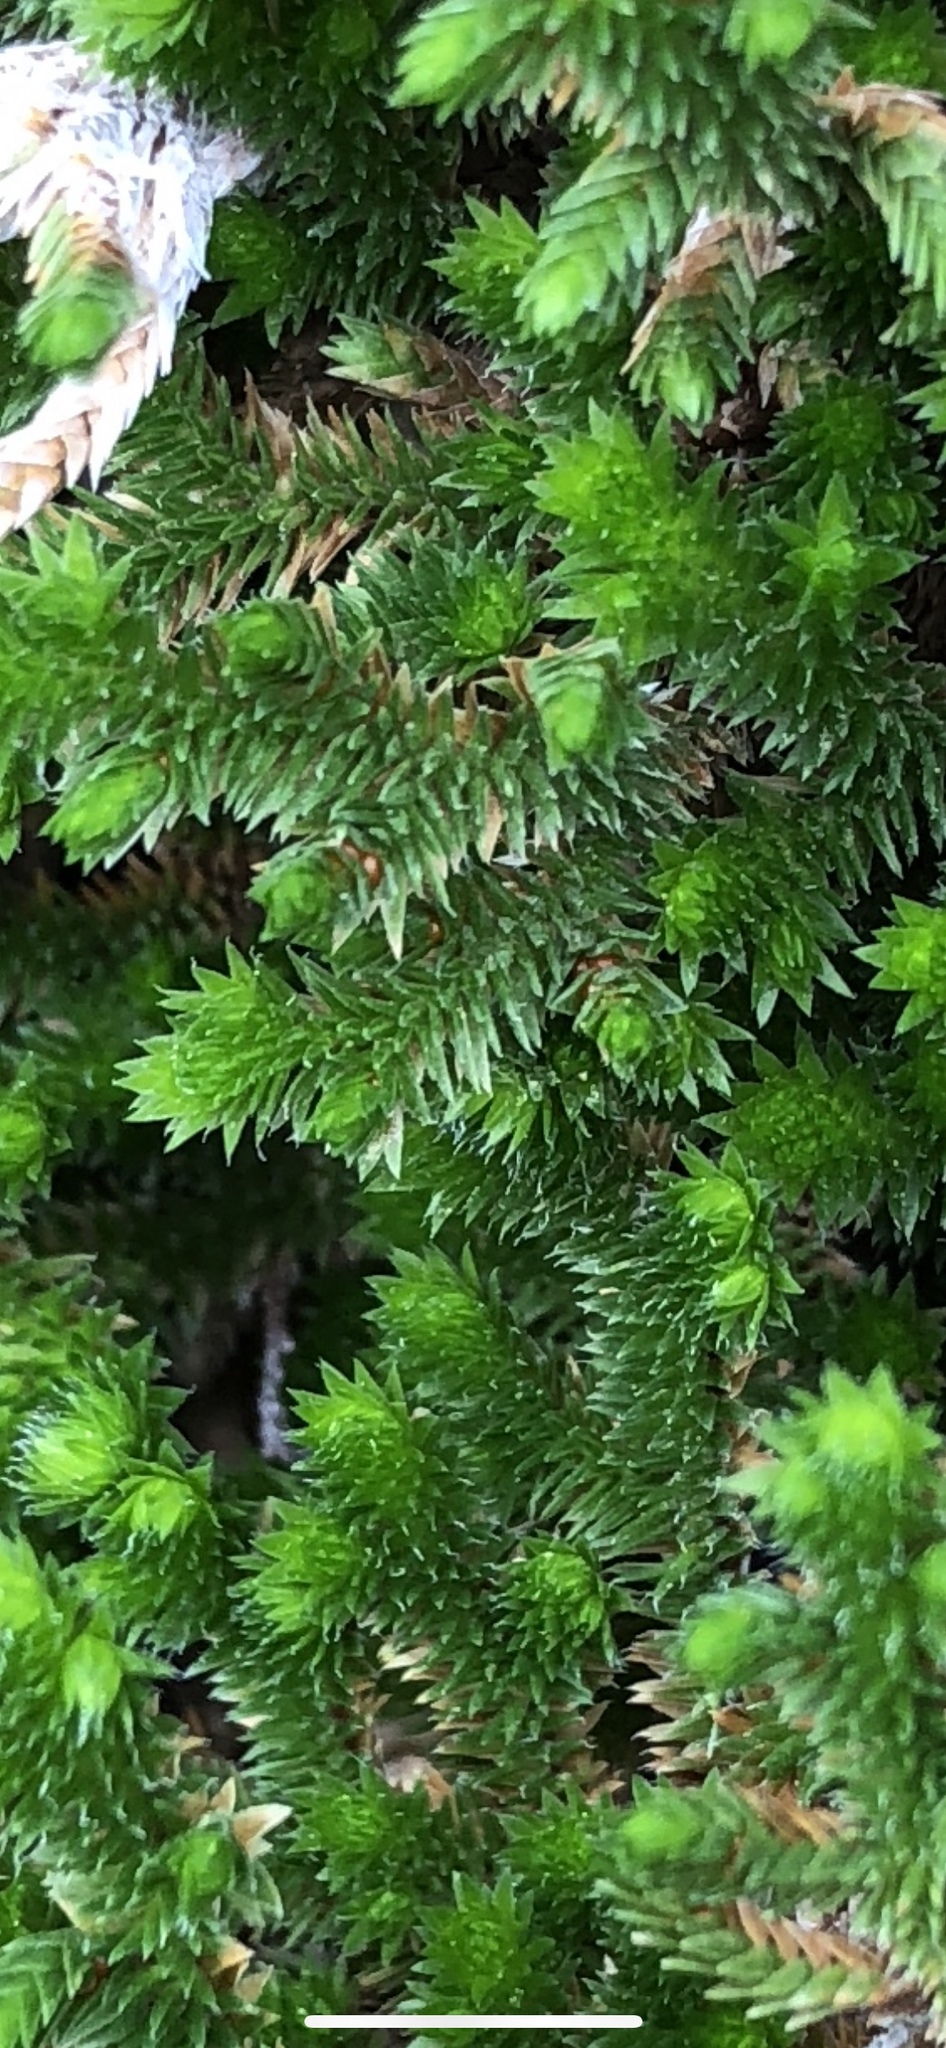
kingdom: Plantae
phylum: Tracheophyta
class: Lycopodiopsida
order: Selaginellales
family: Selaginellaceae
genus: Selaginella
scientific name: Selaginella arizonica
